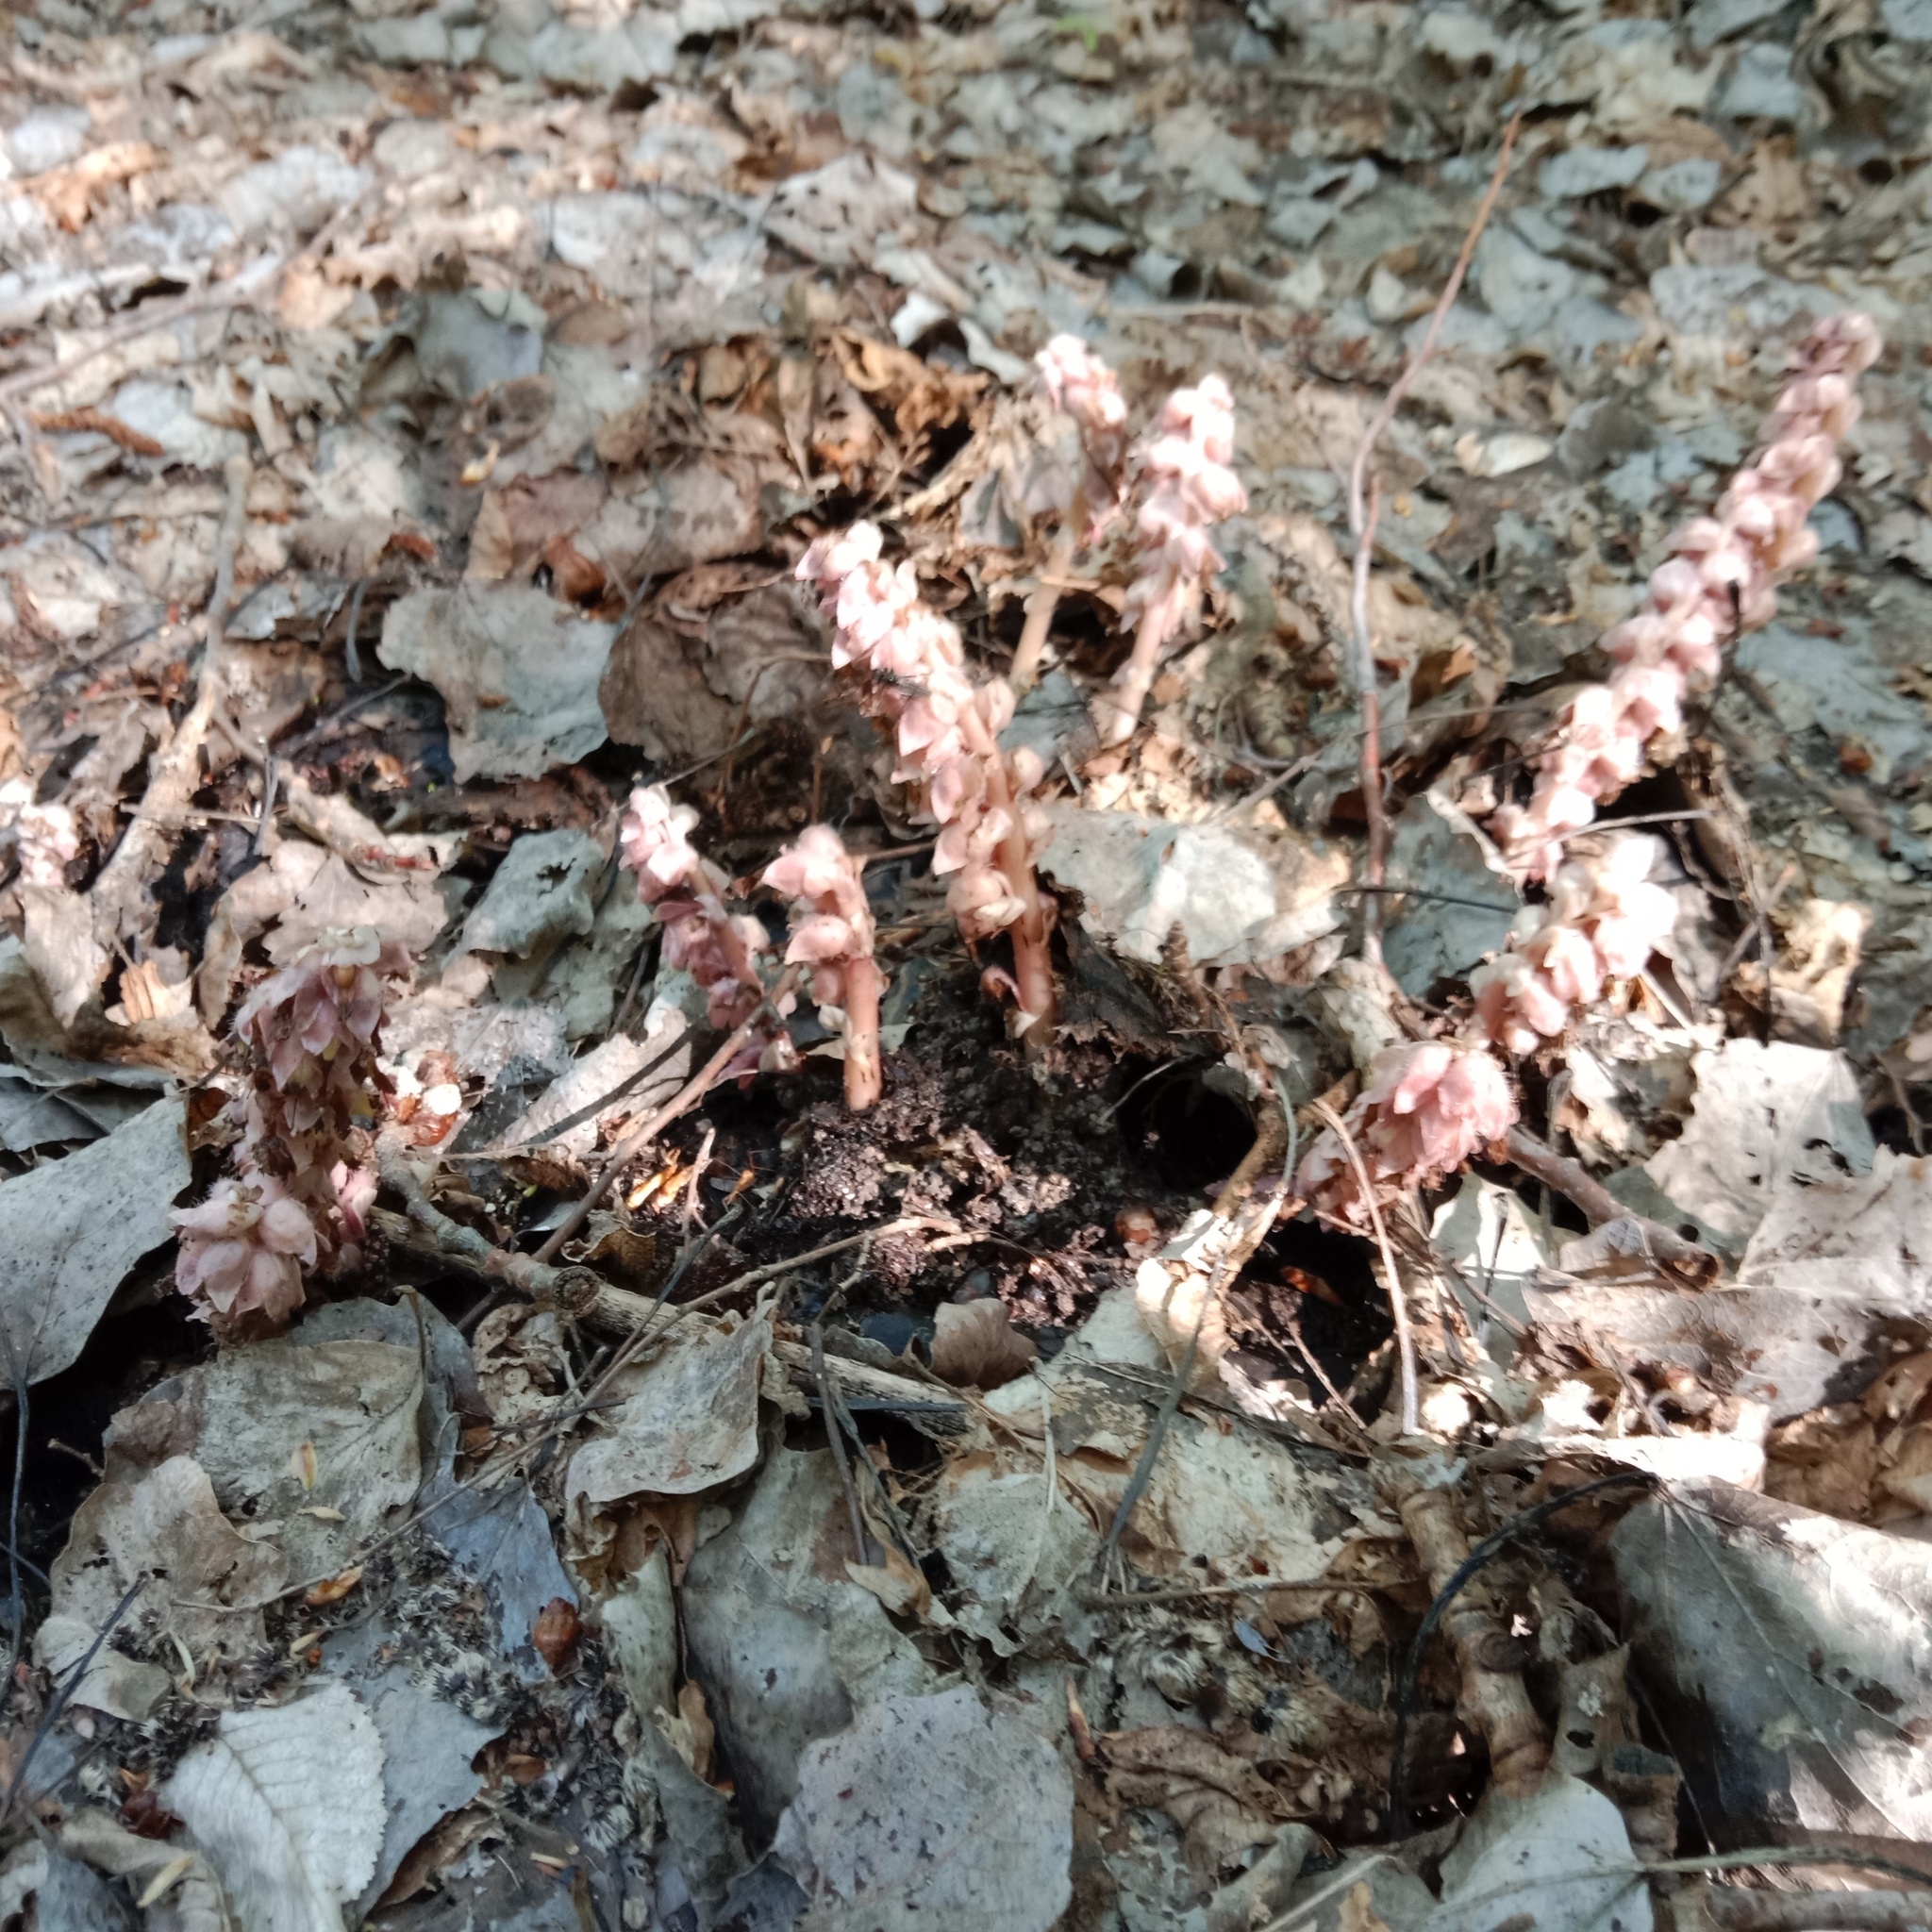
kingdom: Plantae
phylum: Tracheophyta
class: Magnoliopsida
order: Lamiales
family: Orobanchaceae
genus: Lathraea
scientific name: Lathraea squamaria
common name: Toothwort
